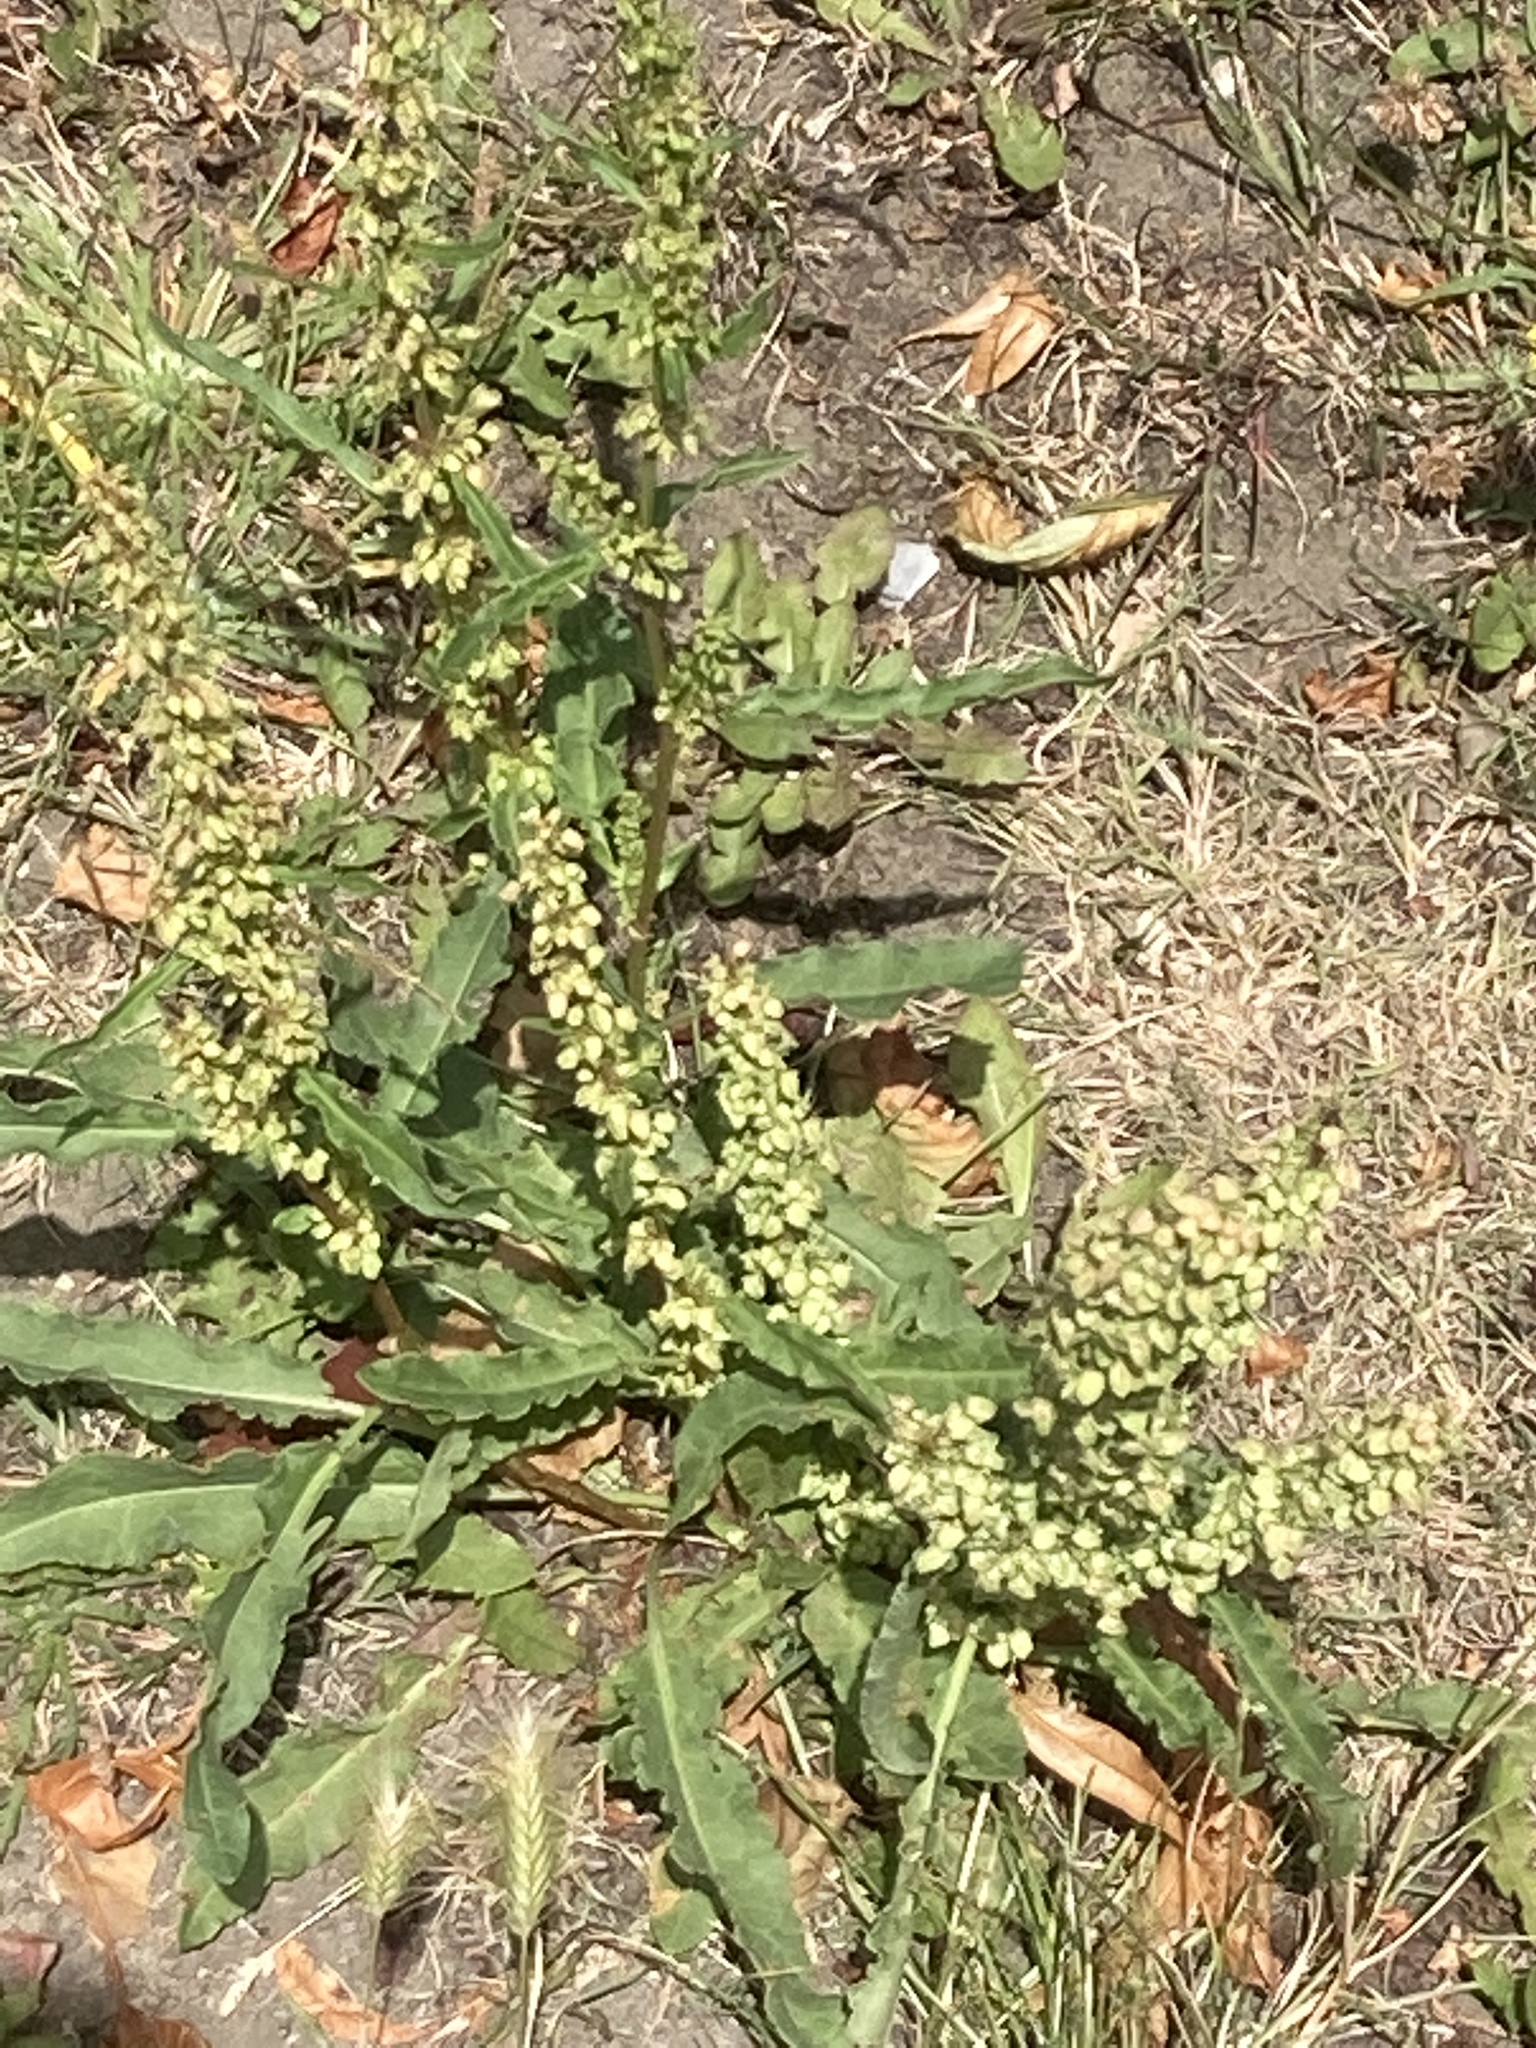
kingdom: Plantae
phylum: Tracheophyta
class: Magnoliopsida
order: Caryophyllales
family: Polygonaceae
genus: Rumex
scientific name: Rumex crispus
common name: Curled dock
